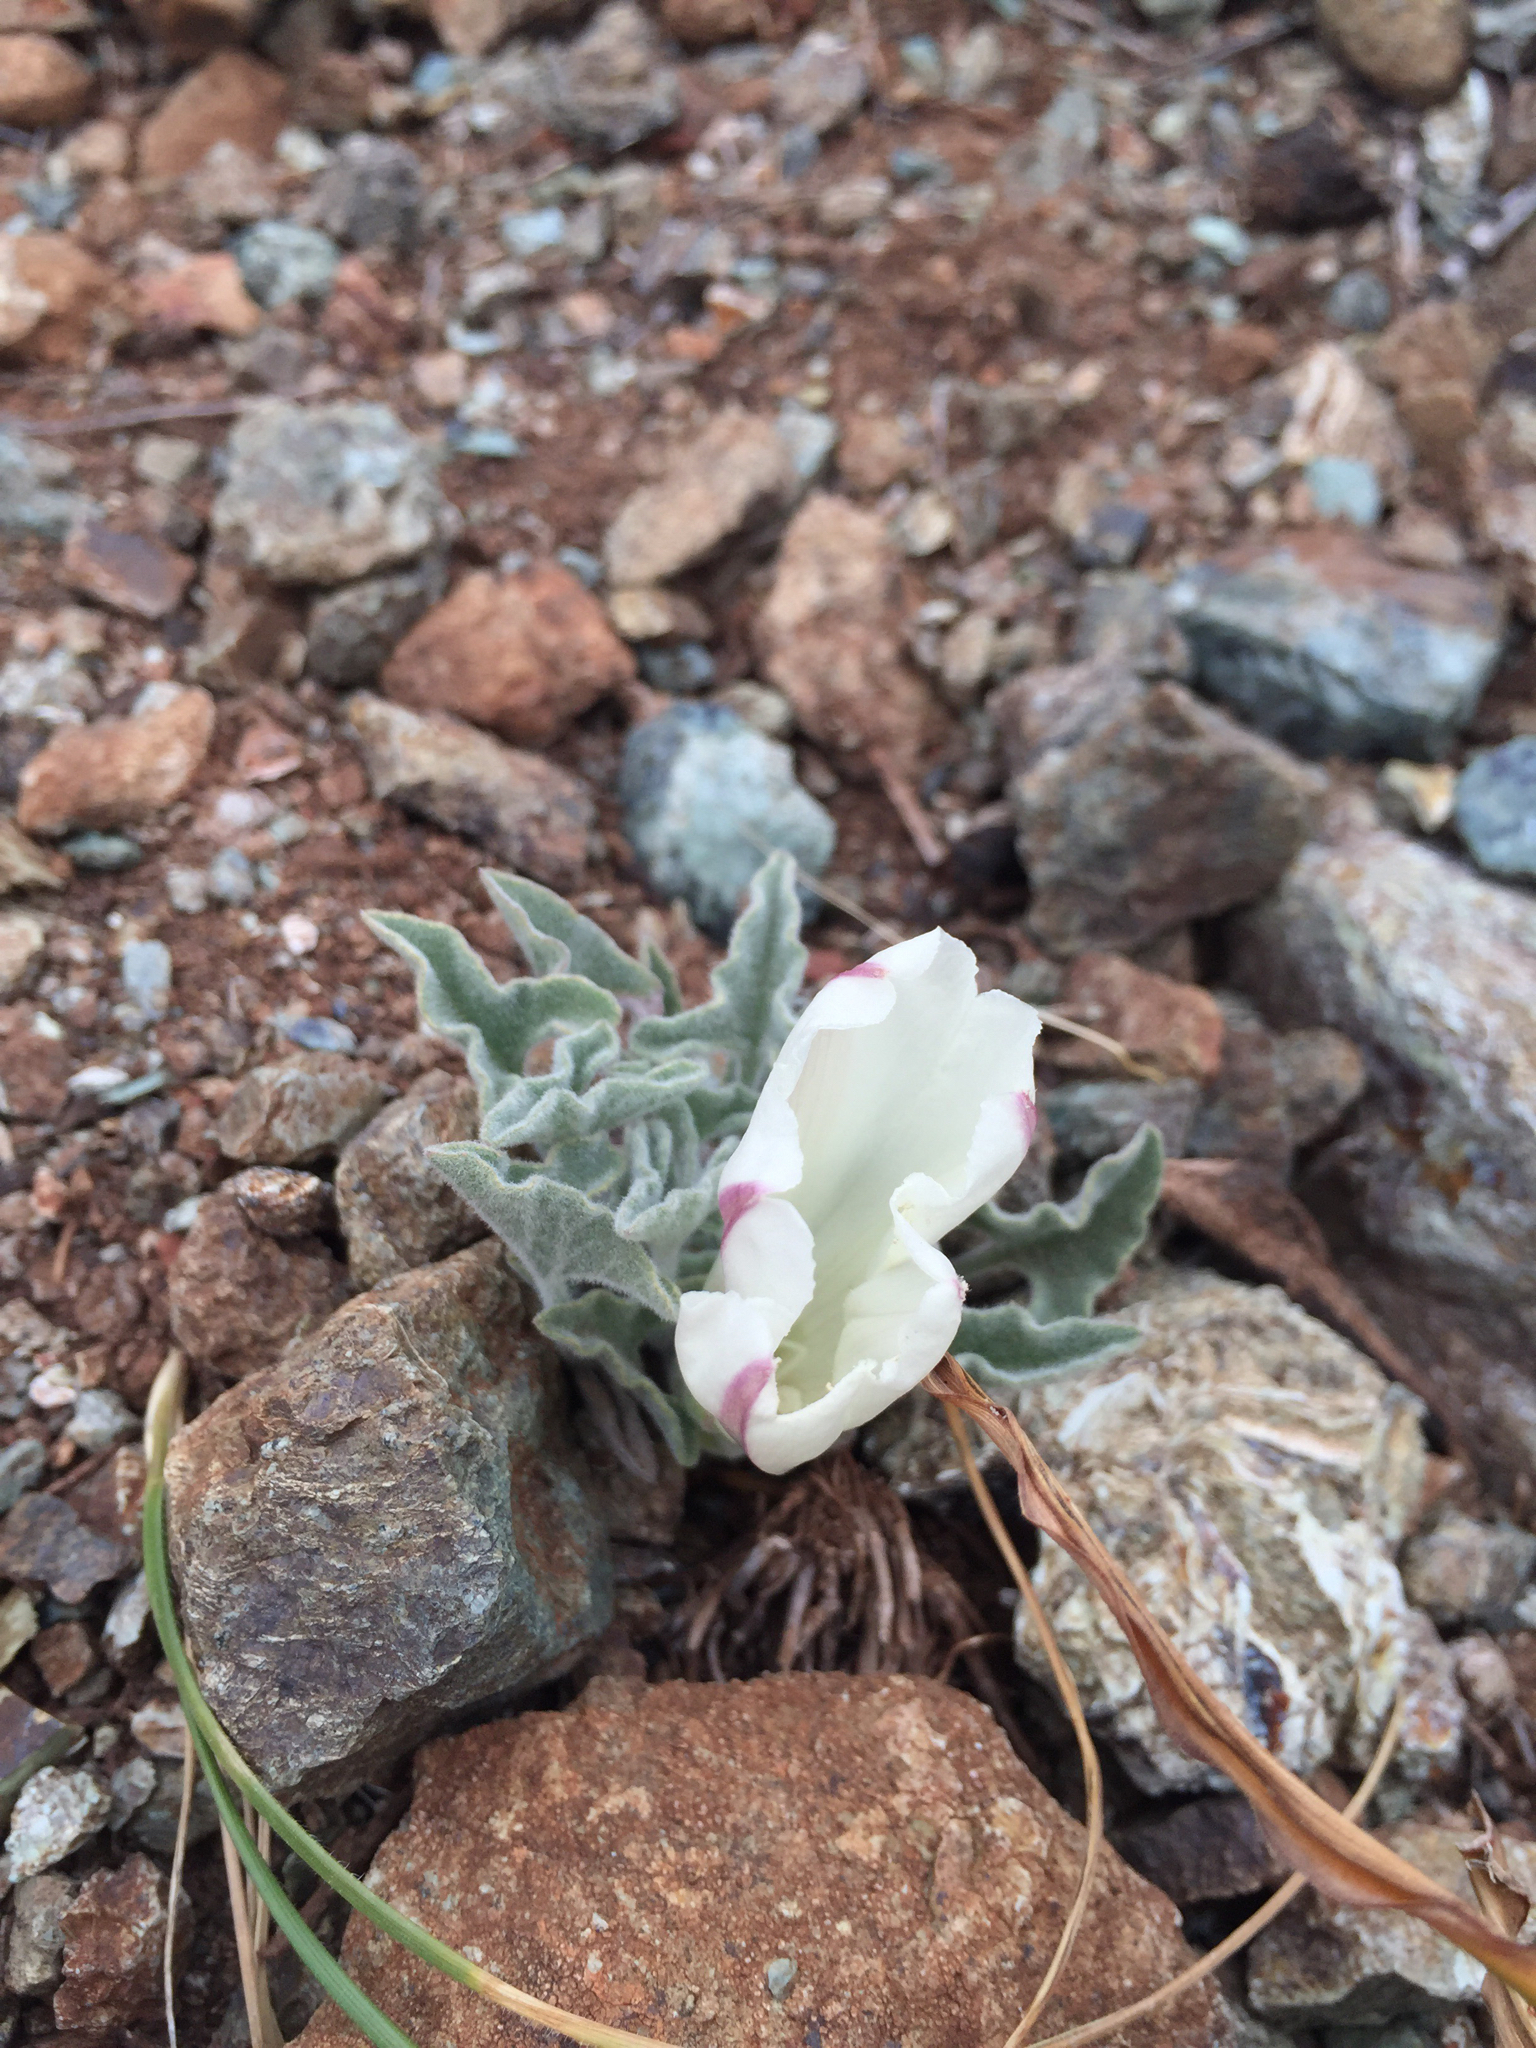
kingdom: Plantae
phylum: Tracheophyta
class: Magnoliopsida
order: Solanales
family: Convolvulaceae
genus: Calystegia
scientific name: Calystegia collina
